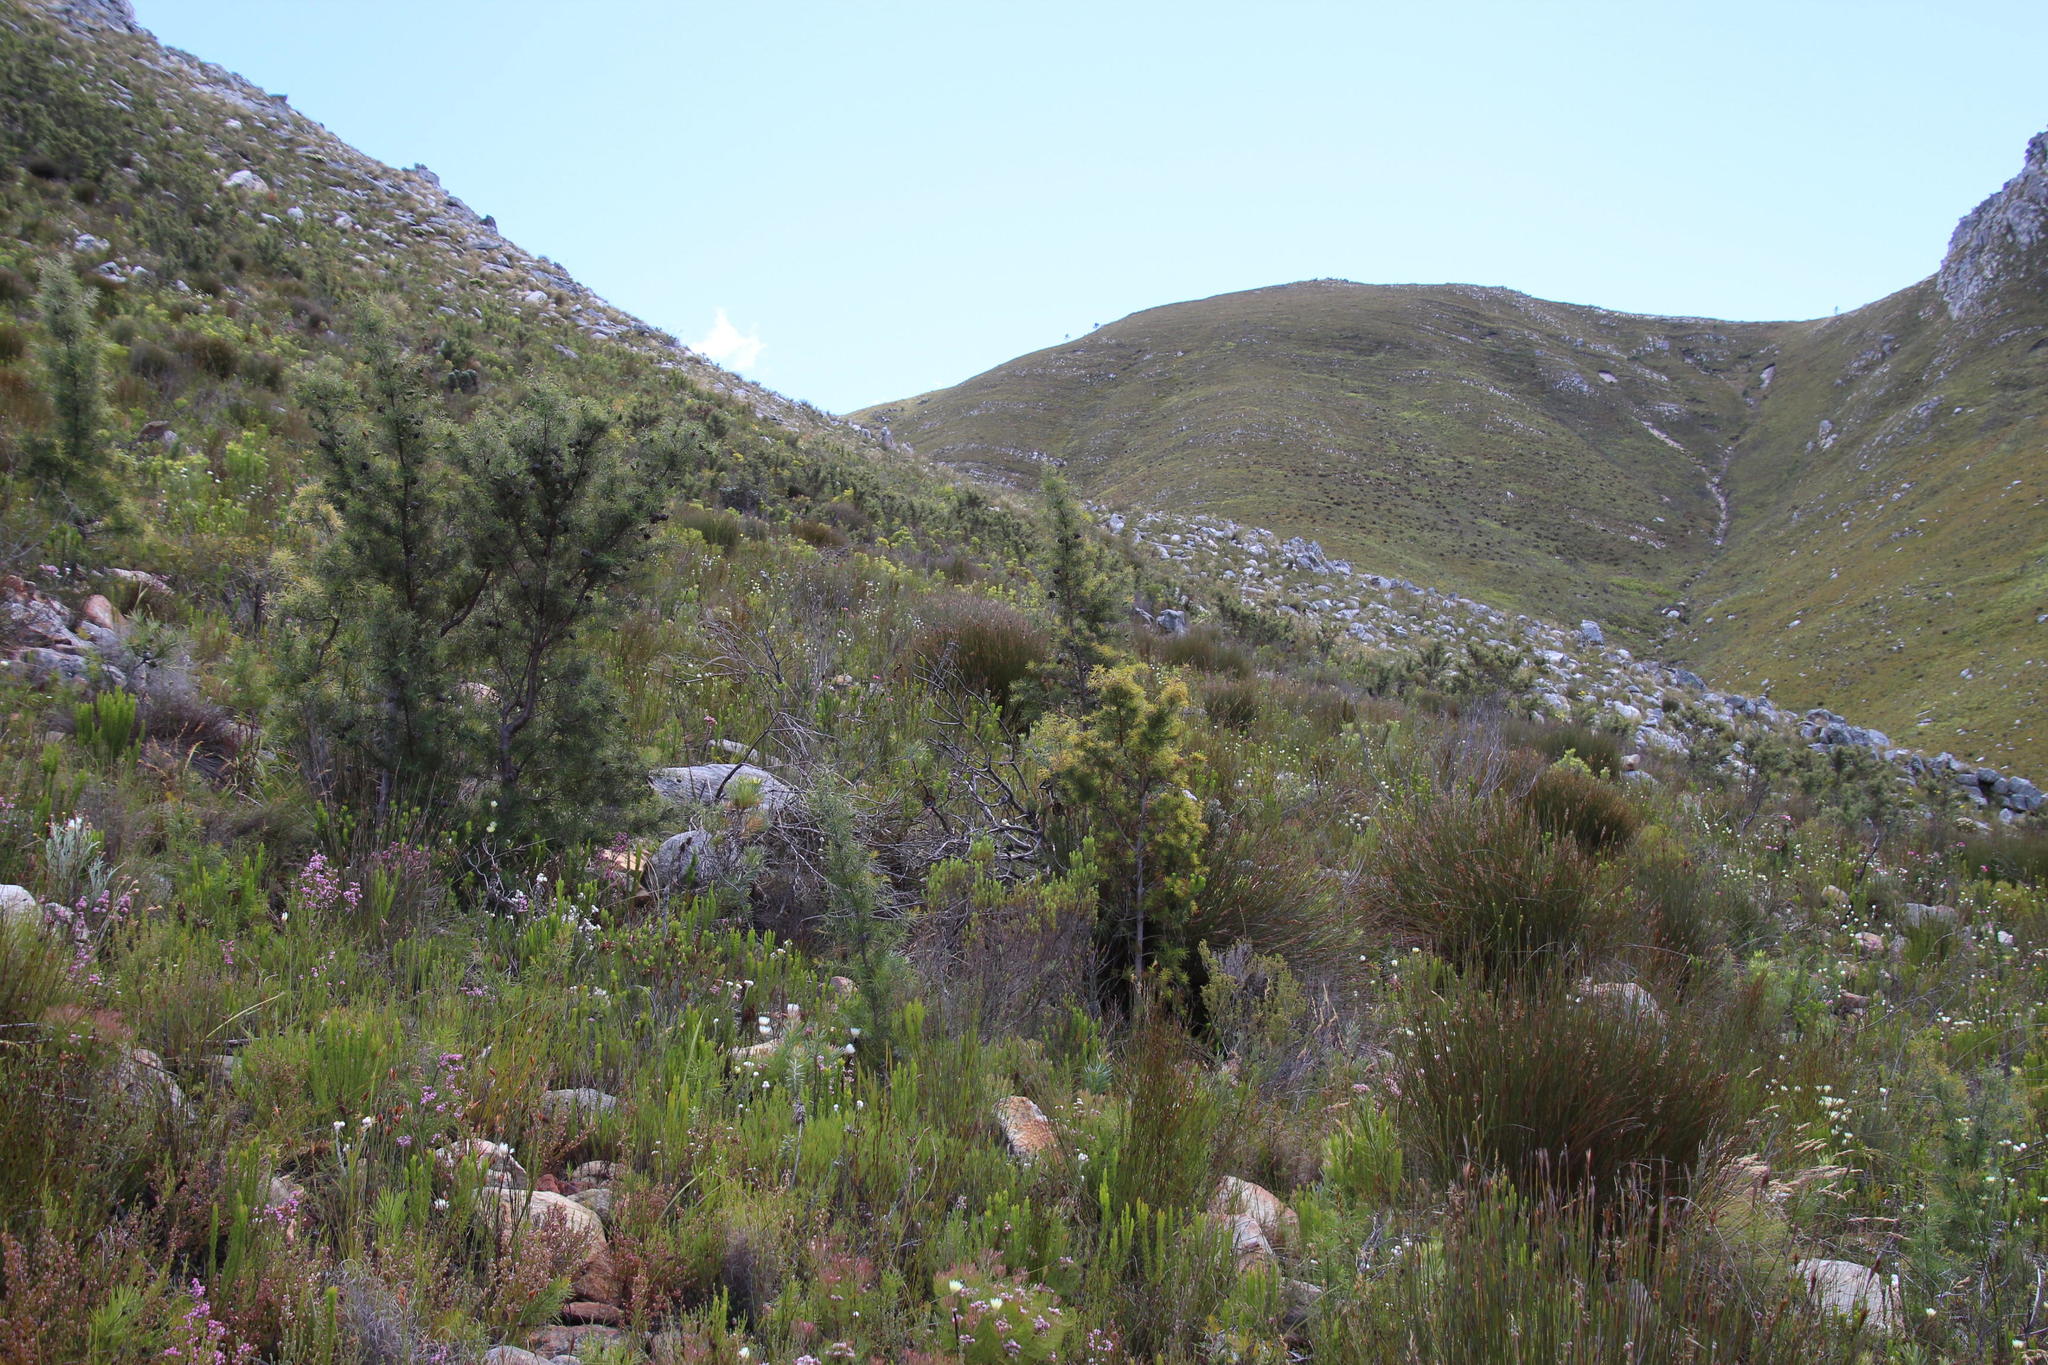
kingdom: Plantae
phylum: Tracheophyta
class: Magnoliopsida
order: Proteales
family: Proteaceae
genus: Hakea
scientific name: Hakea gibbosa
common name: Rock hakea
